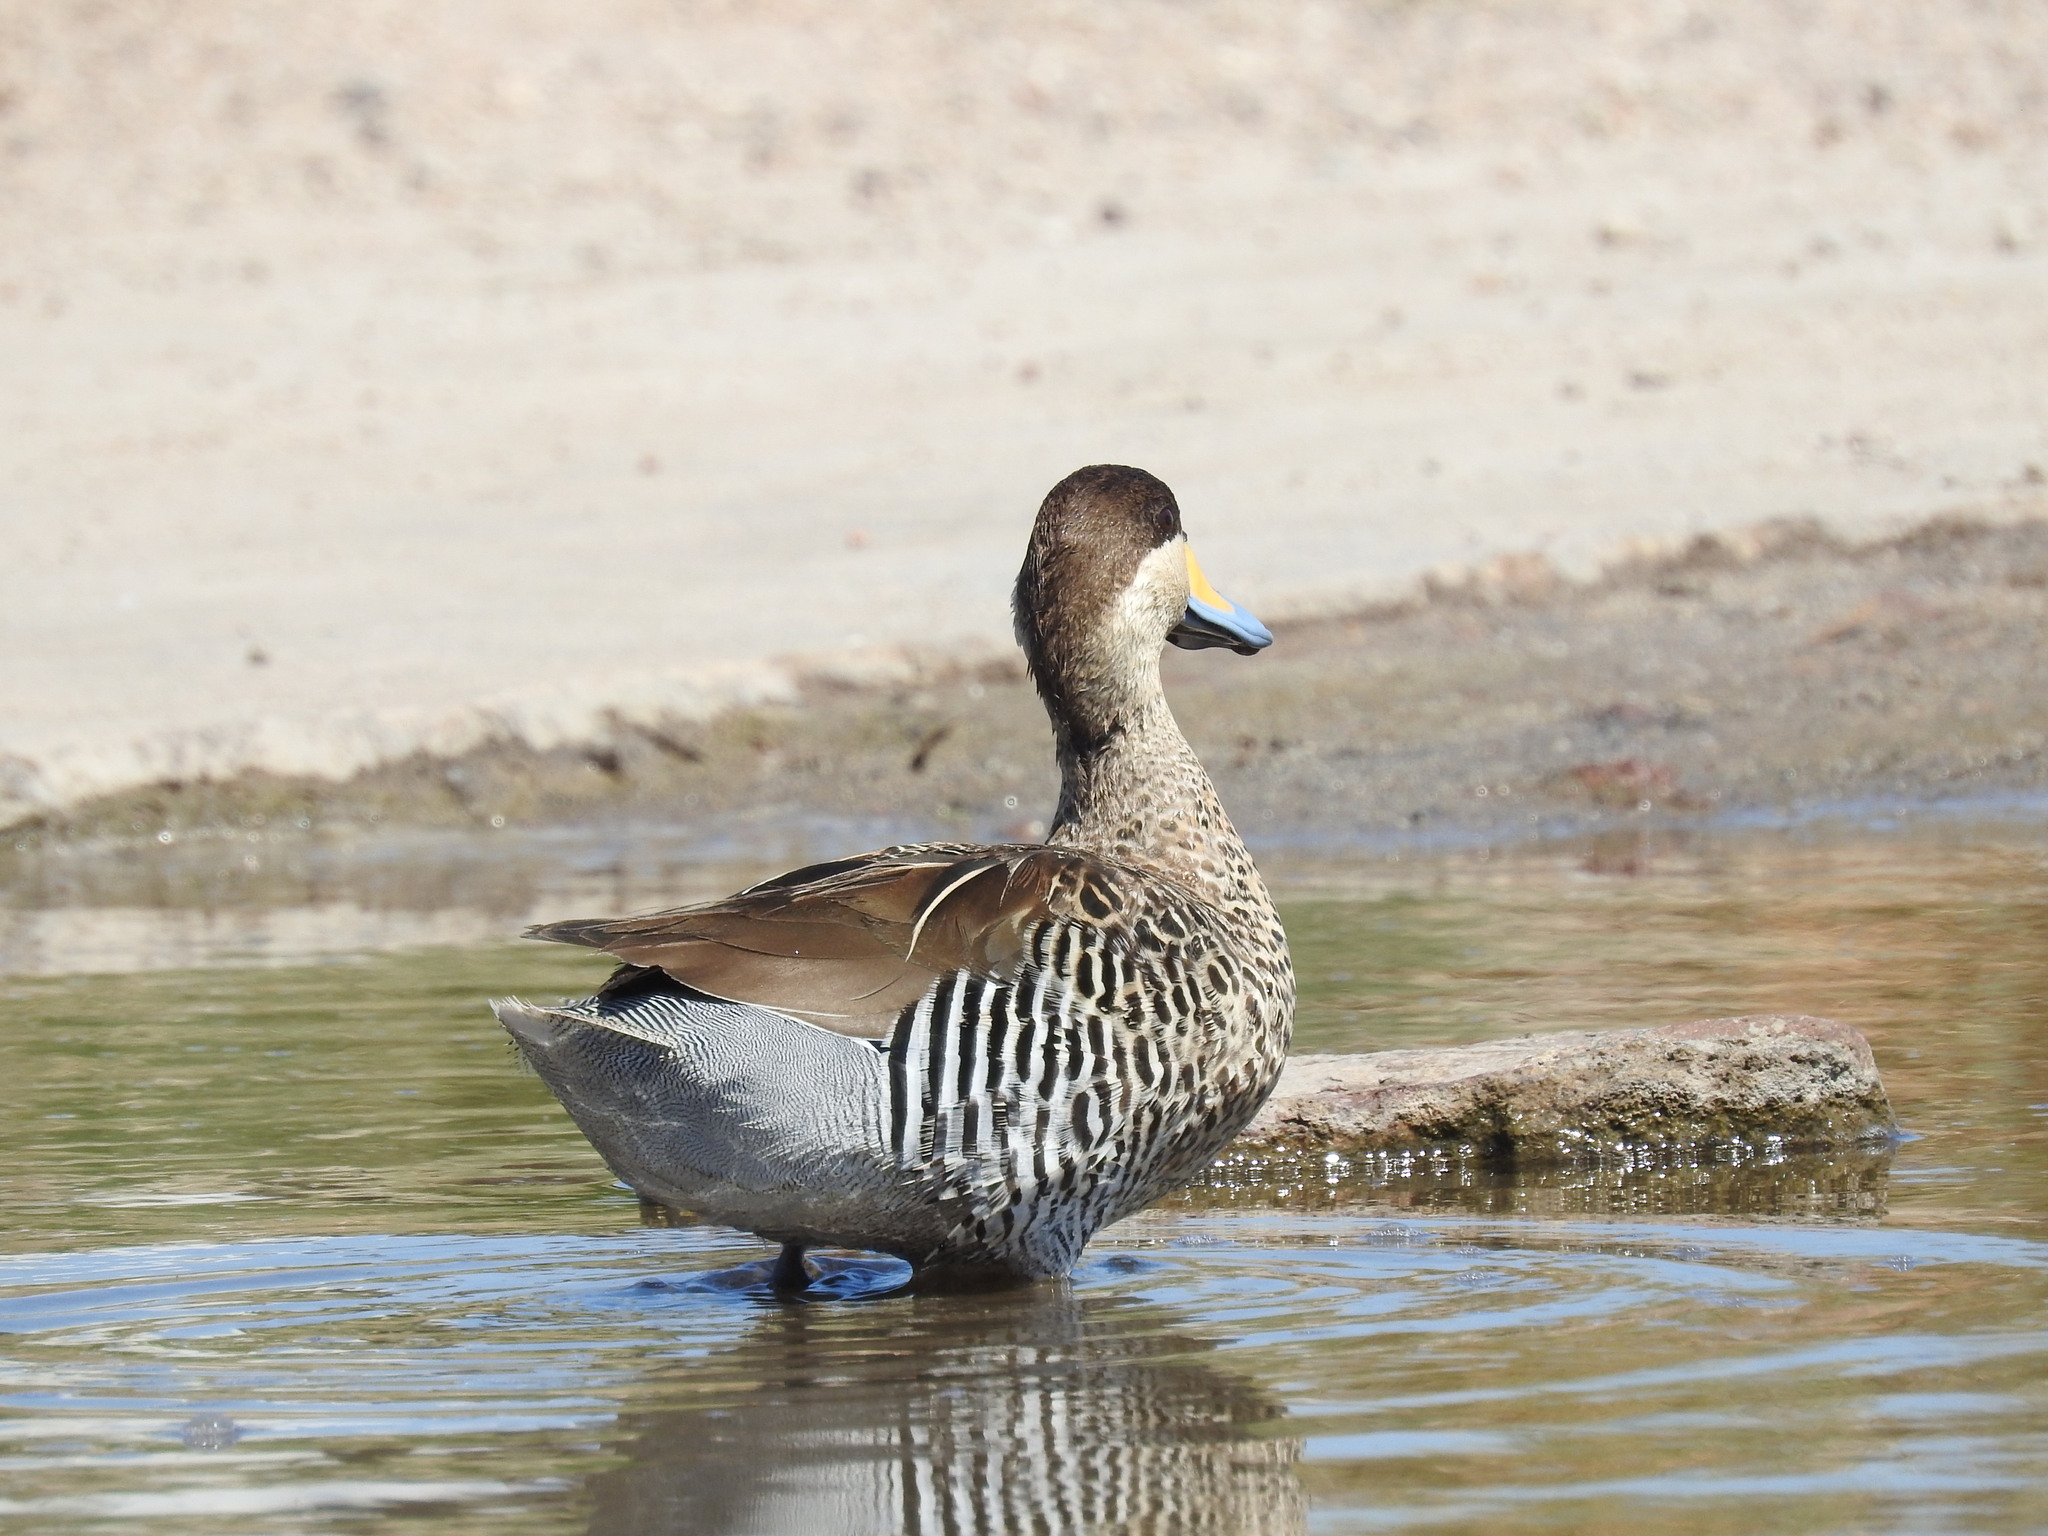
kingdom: Animalia
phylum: Chordata
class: Aves
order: Anseriformes
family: Anatidae
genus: Spatula
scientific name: Spatula versicolor
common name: Silver teal
